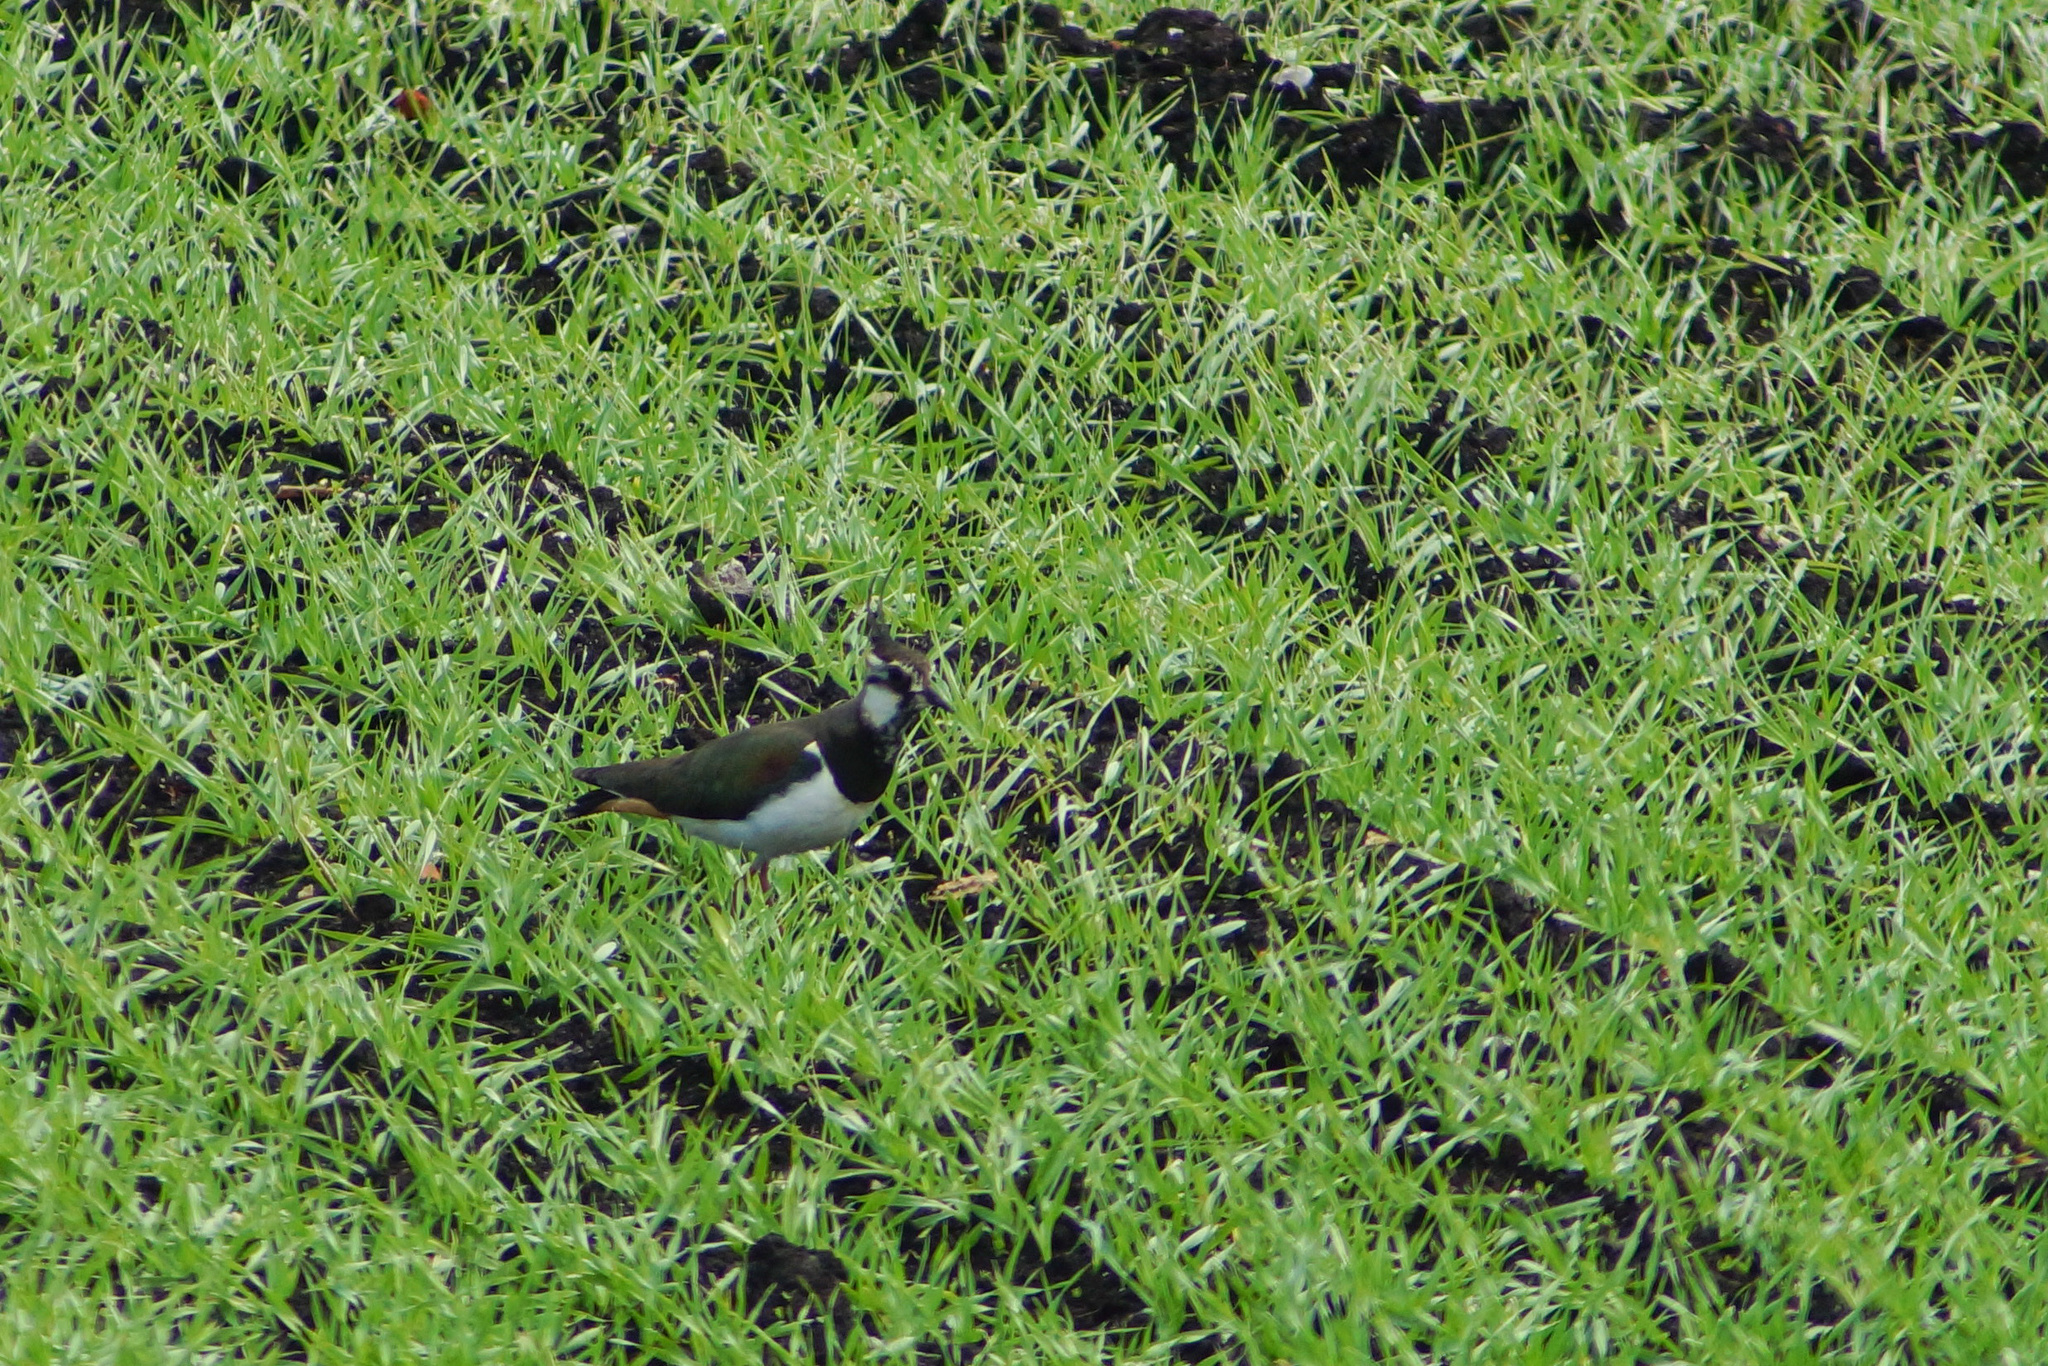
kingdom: Animalia
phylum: Chordata
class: Aves
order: Charadriiformes
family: Charadriidae
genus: Vanellus
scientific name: Vanellus vanellus
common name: Northern lapwing
